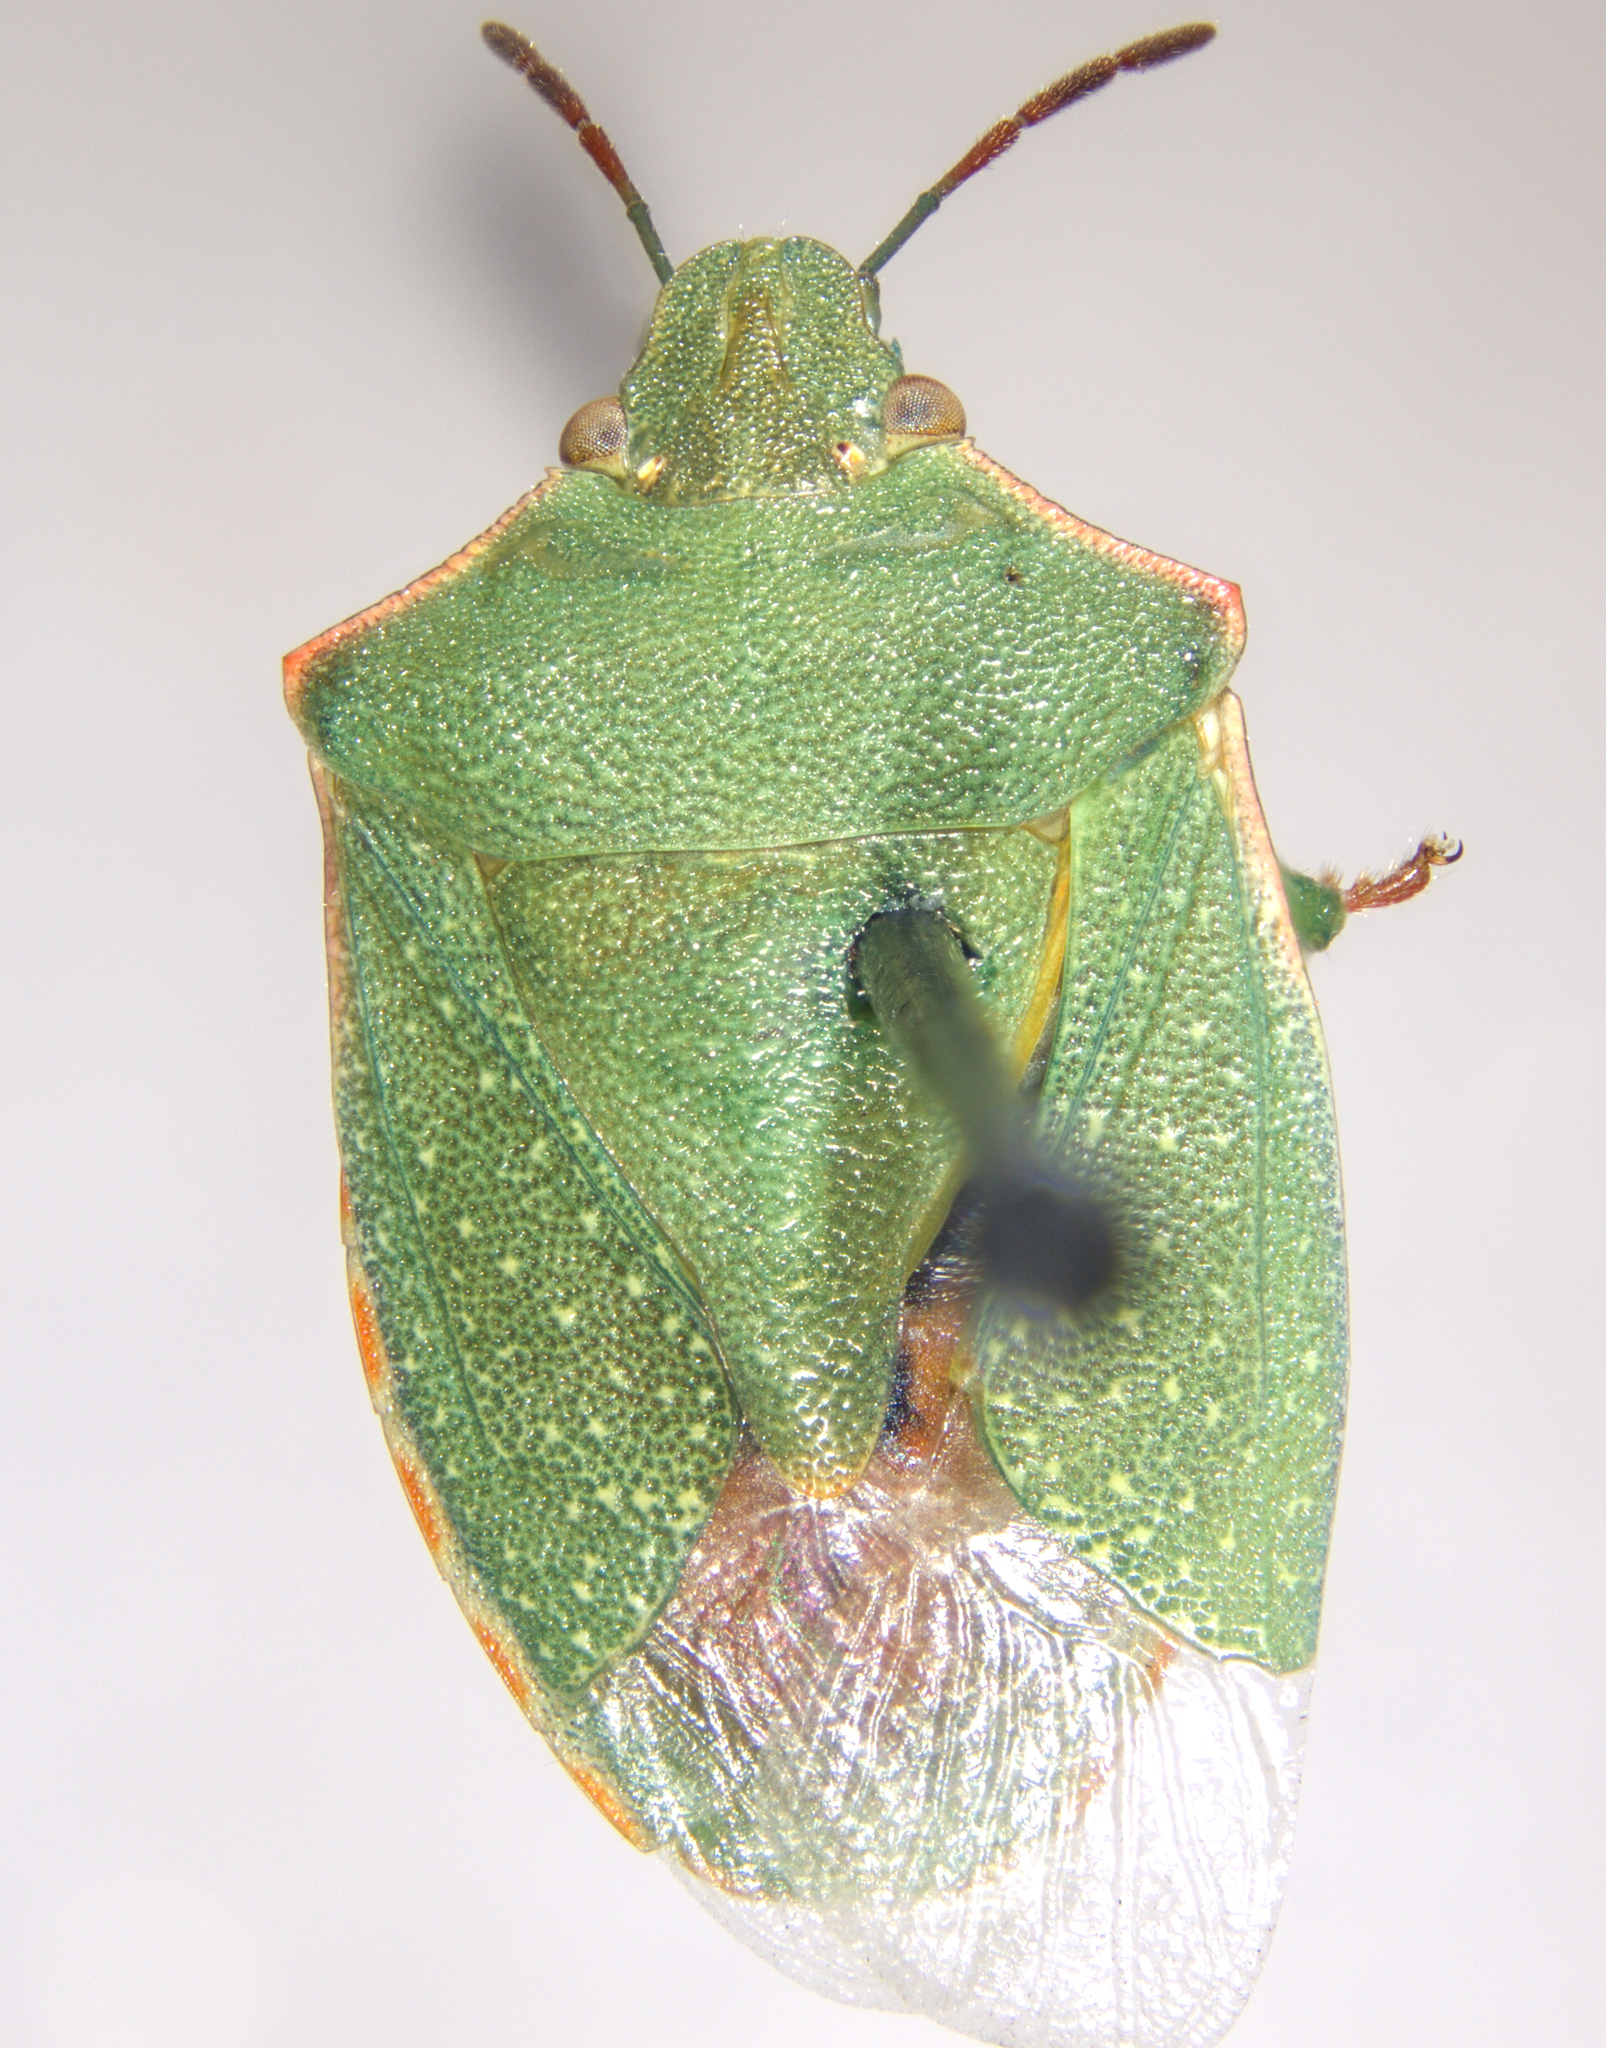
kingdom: Animalia
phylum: Arthropoda
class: Insecta
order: Hemiptera
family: Pentatomidae
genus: Thyanta
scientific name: Thyanta accerra
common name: Stink bug
